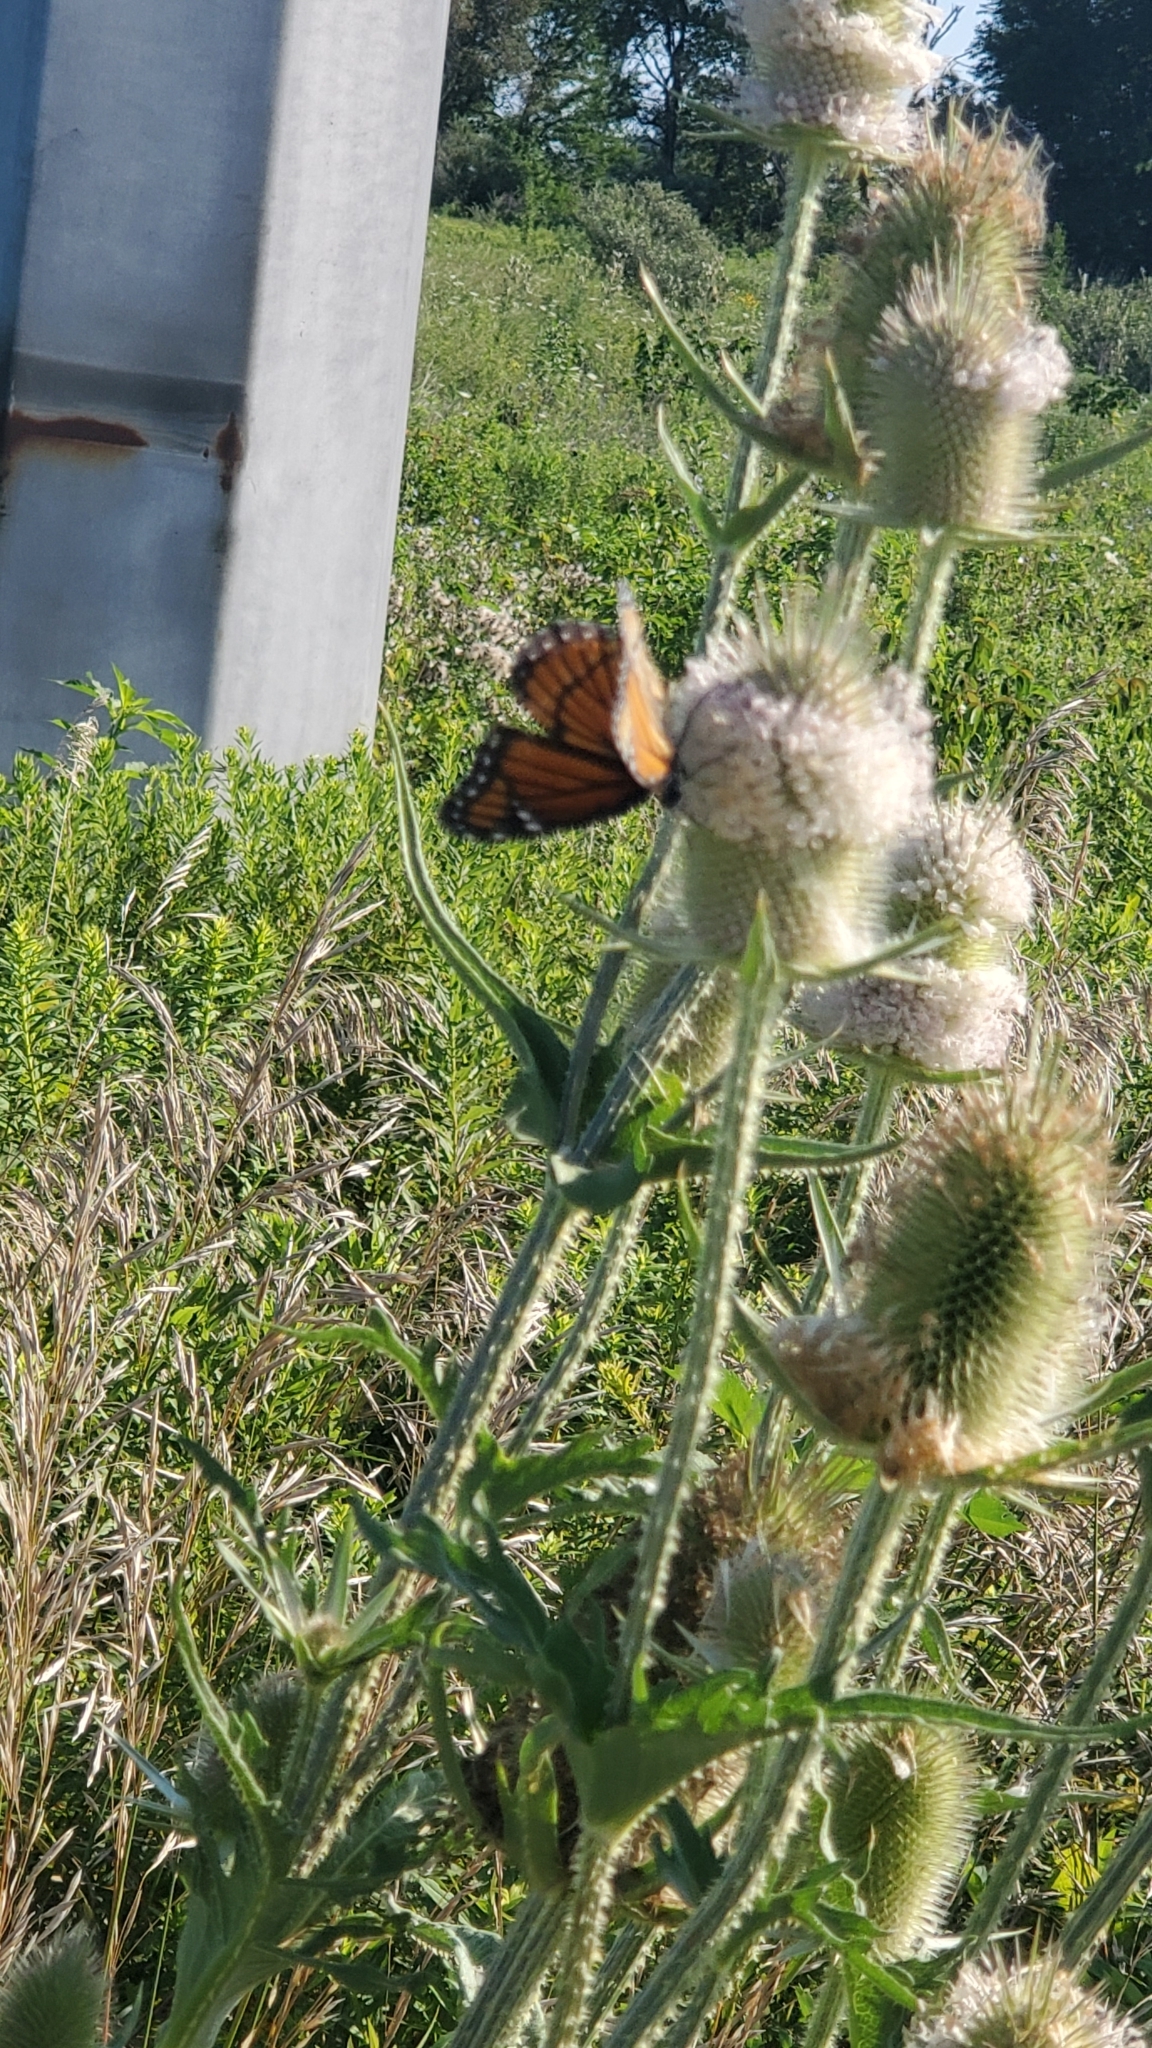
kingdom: Animalia
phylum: Arthropoda
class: Insecta
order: Lepidoptera
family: Nymphalidae
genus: Limenitis
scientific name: Limenitis archippus
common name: Viceroy
